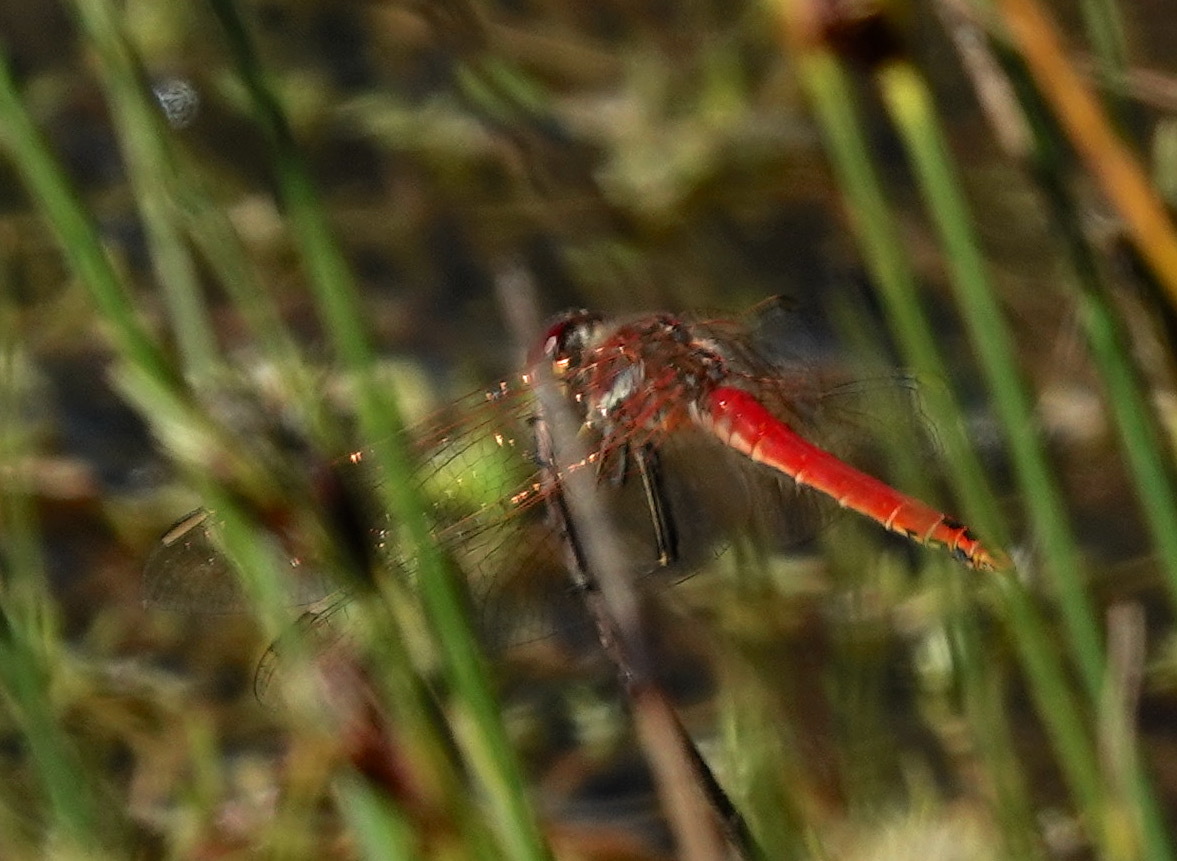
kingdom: Animalia
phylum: Arthropoda
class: Insecta
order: Odonata
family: Libellulidae
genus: Sympetrum
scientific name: Sympetrum fonscolombii
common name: Red-veined darter
